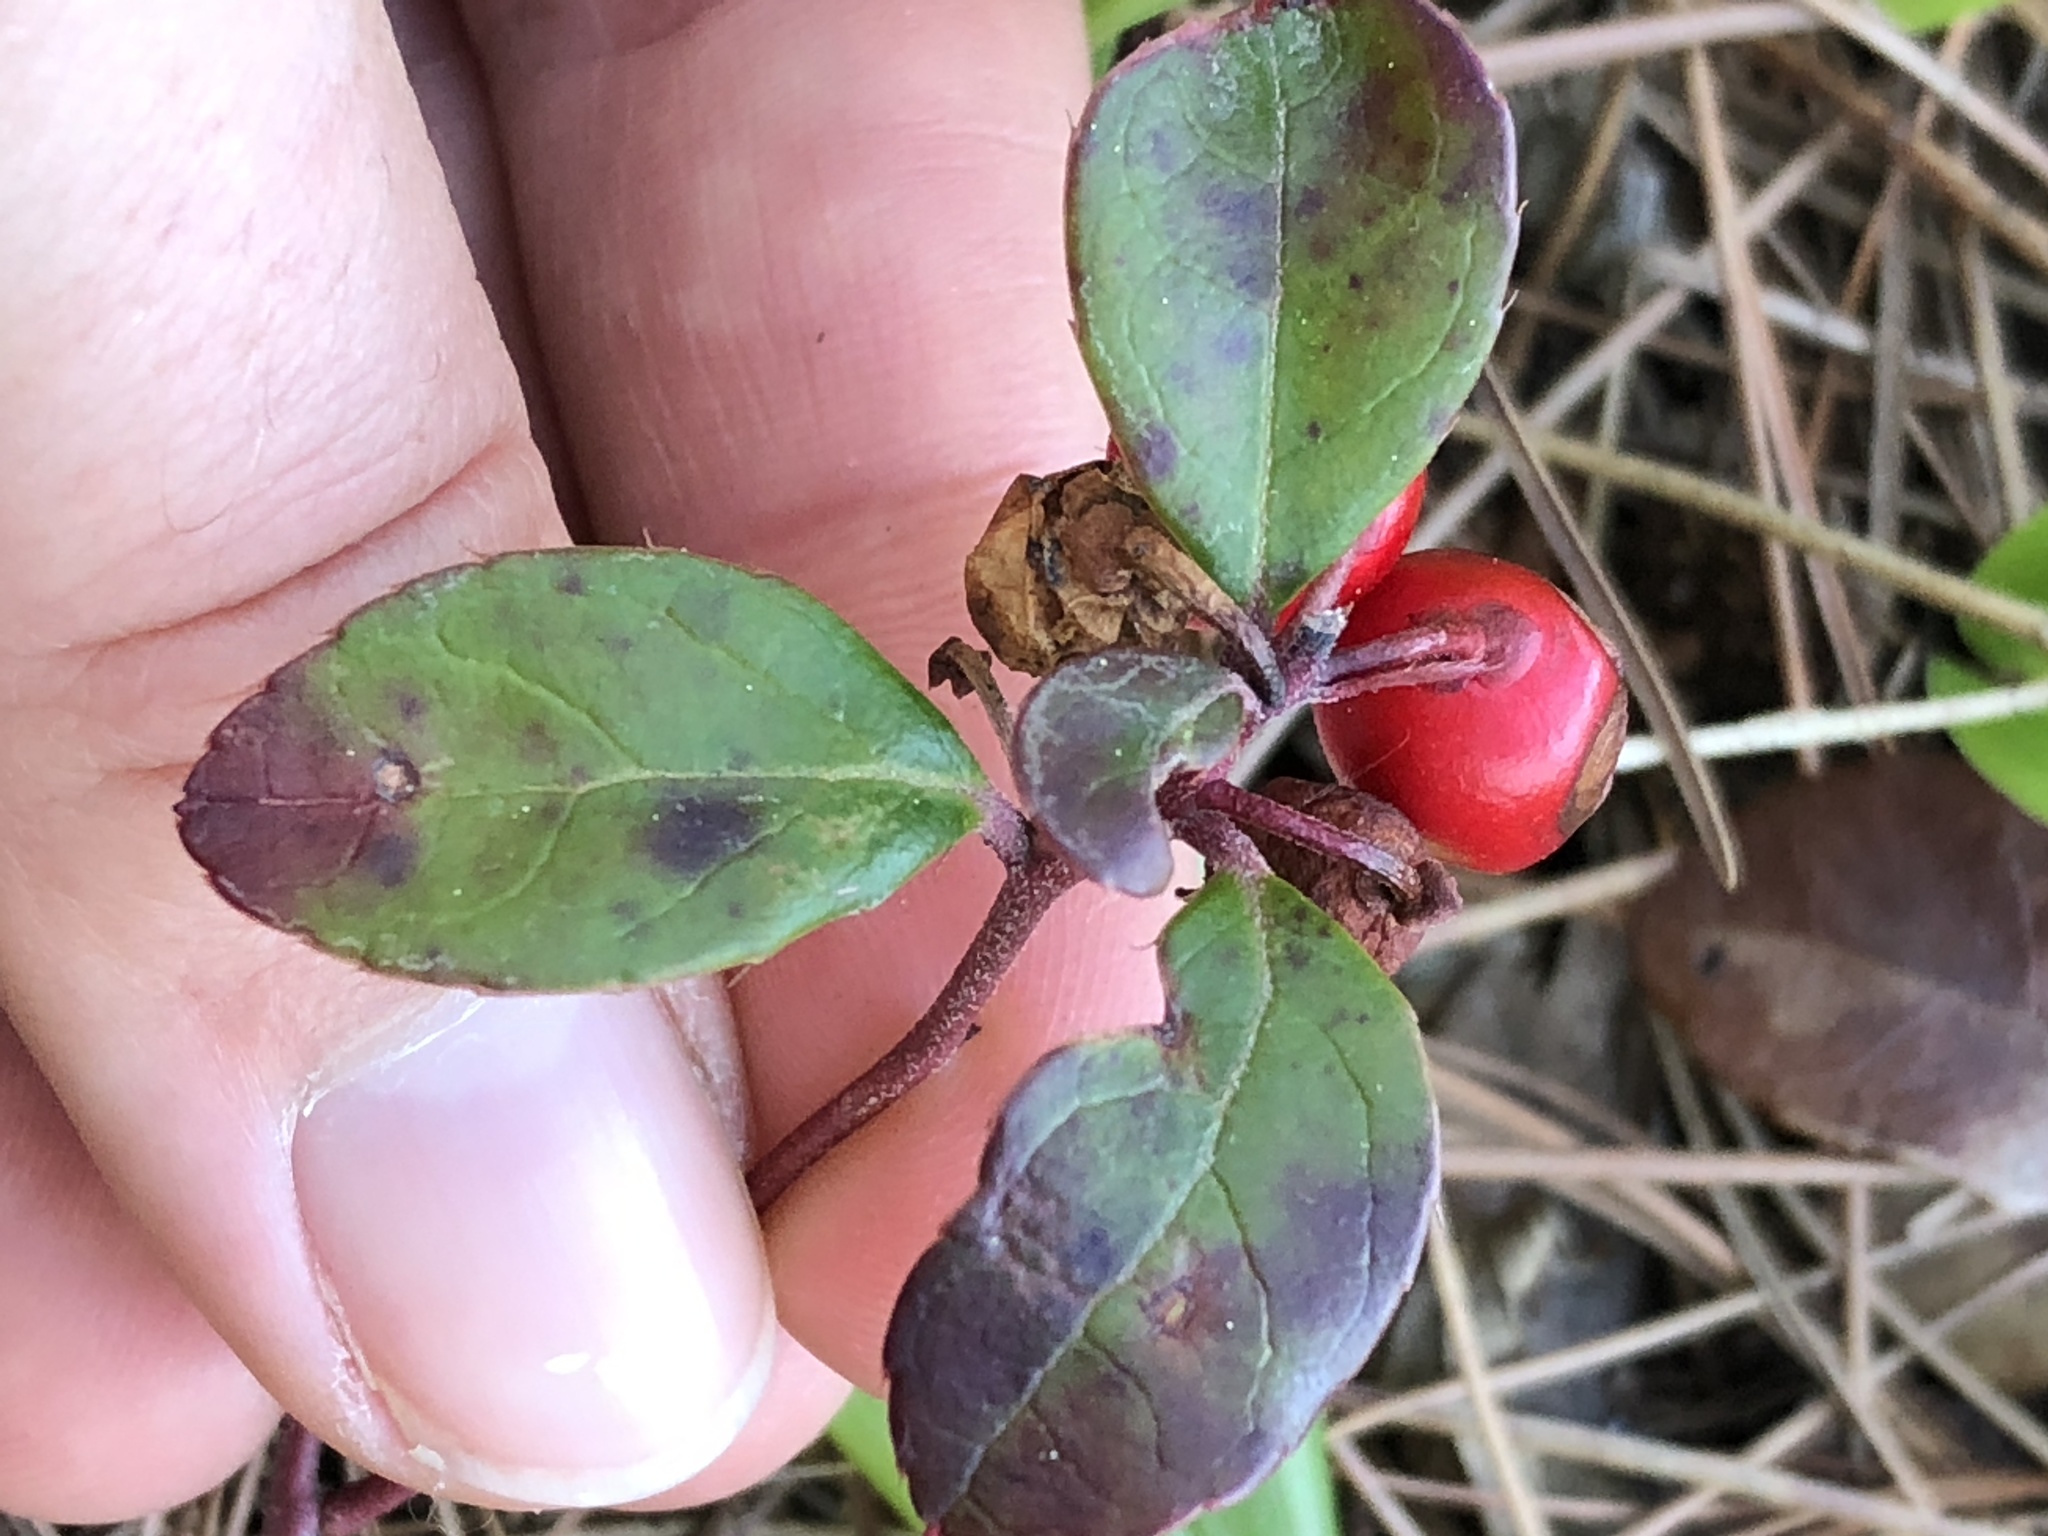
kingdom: Plantae
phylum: Tracheophyta
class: Magnoliopsida
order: Ericales
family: Ericaceae
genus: Gaultheria
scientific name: Gaultheria procumbens
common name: Checkerberry
